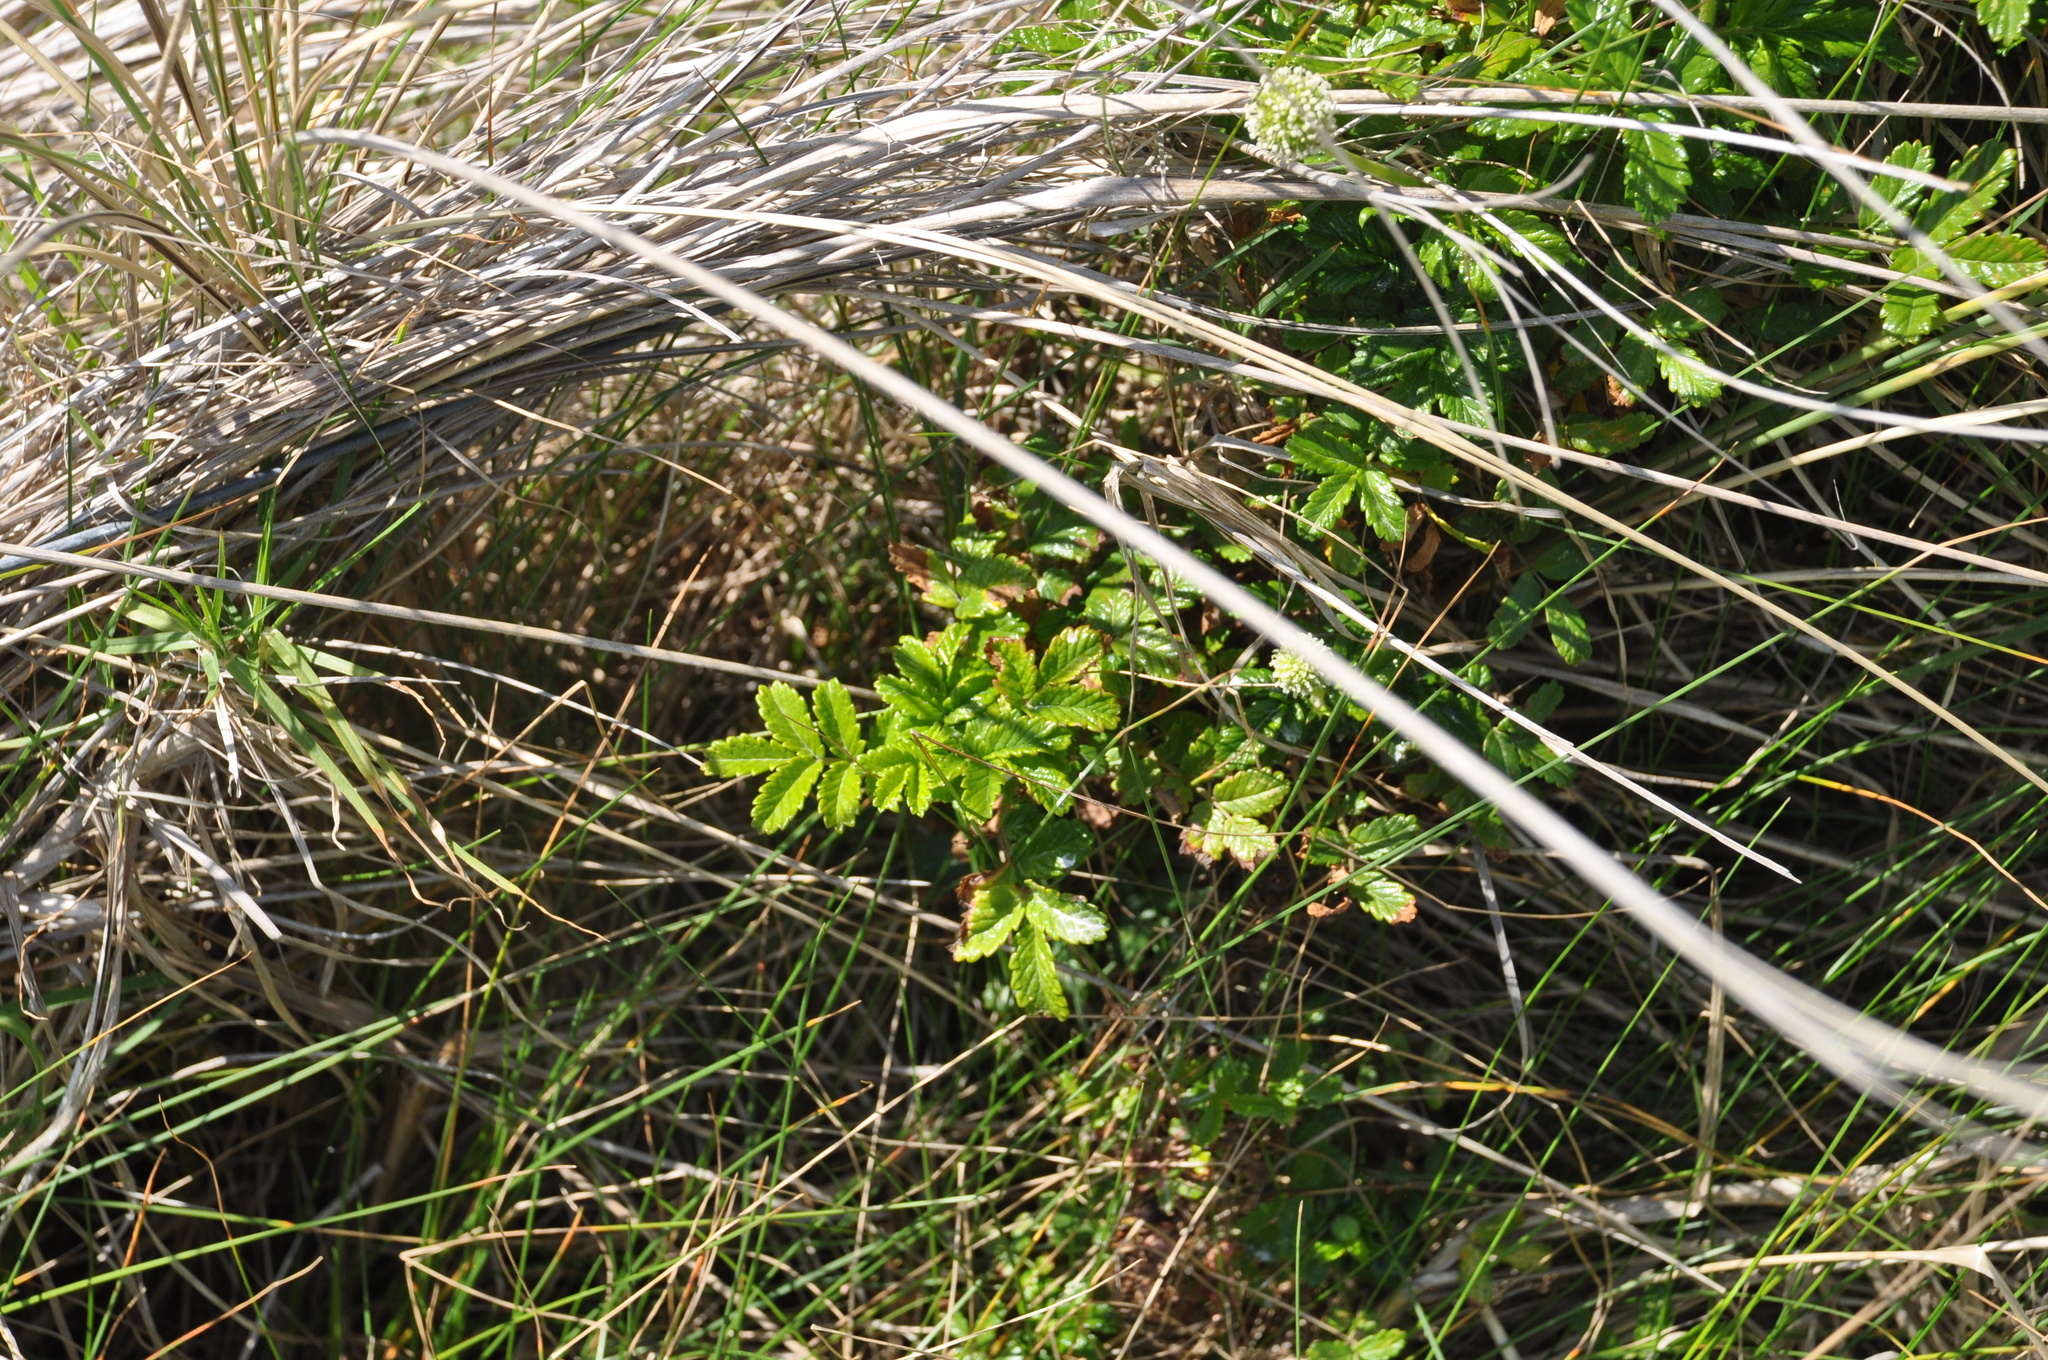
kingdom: Plantae
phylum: Tracheophyta
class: Magnoliopsida
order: Rosales
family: Rosaceae
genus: Acaena
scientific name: Acaena pallida
